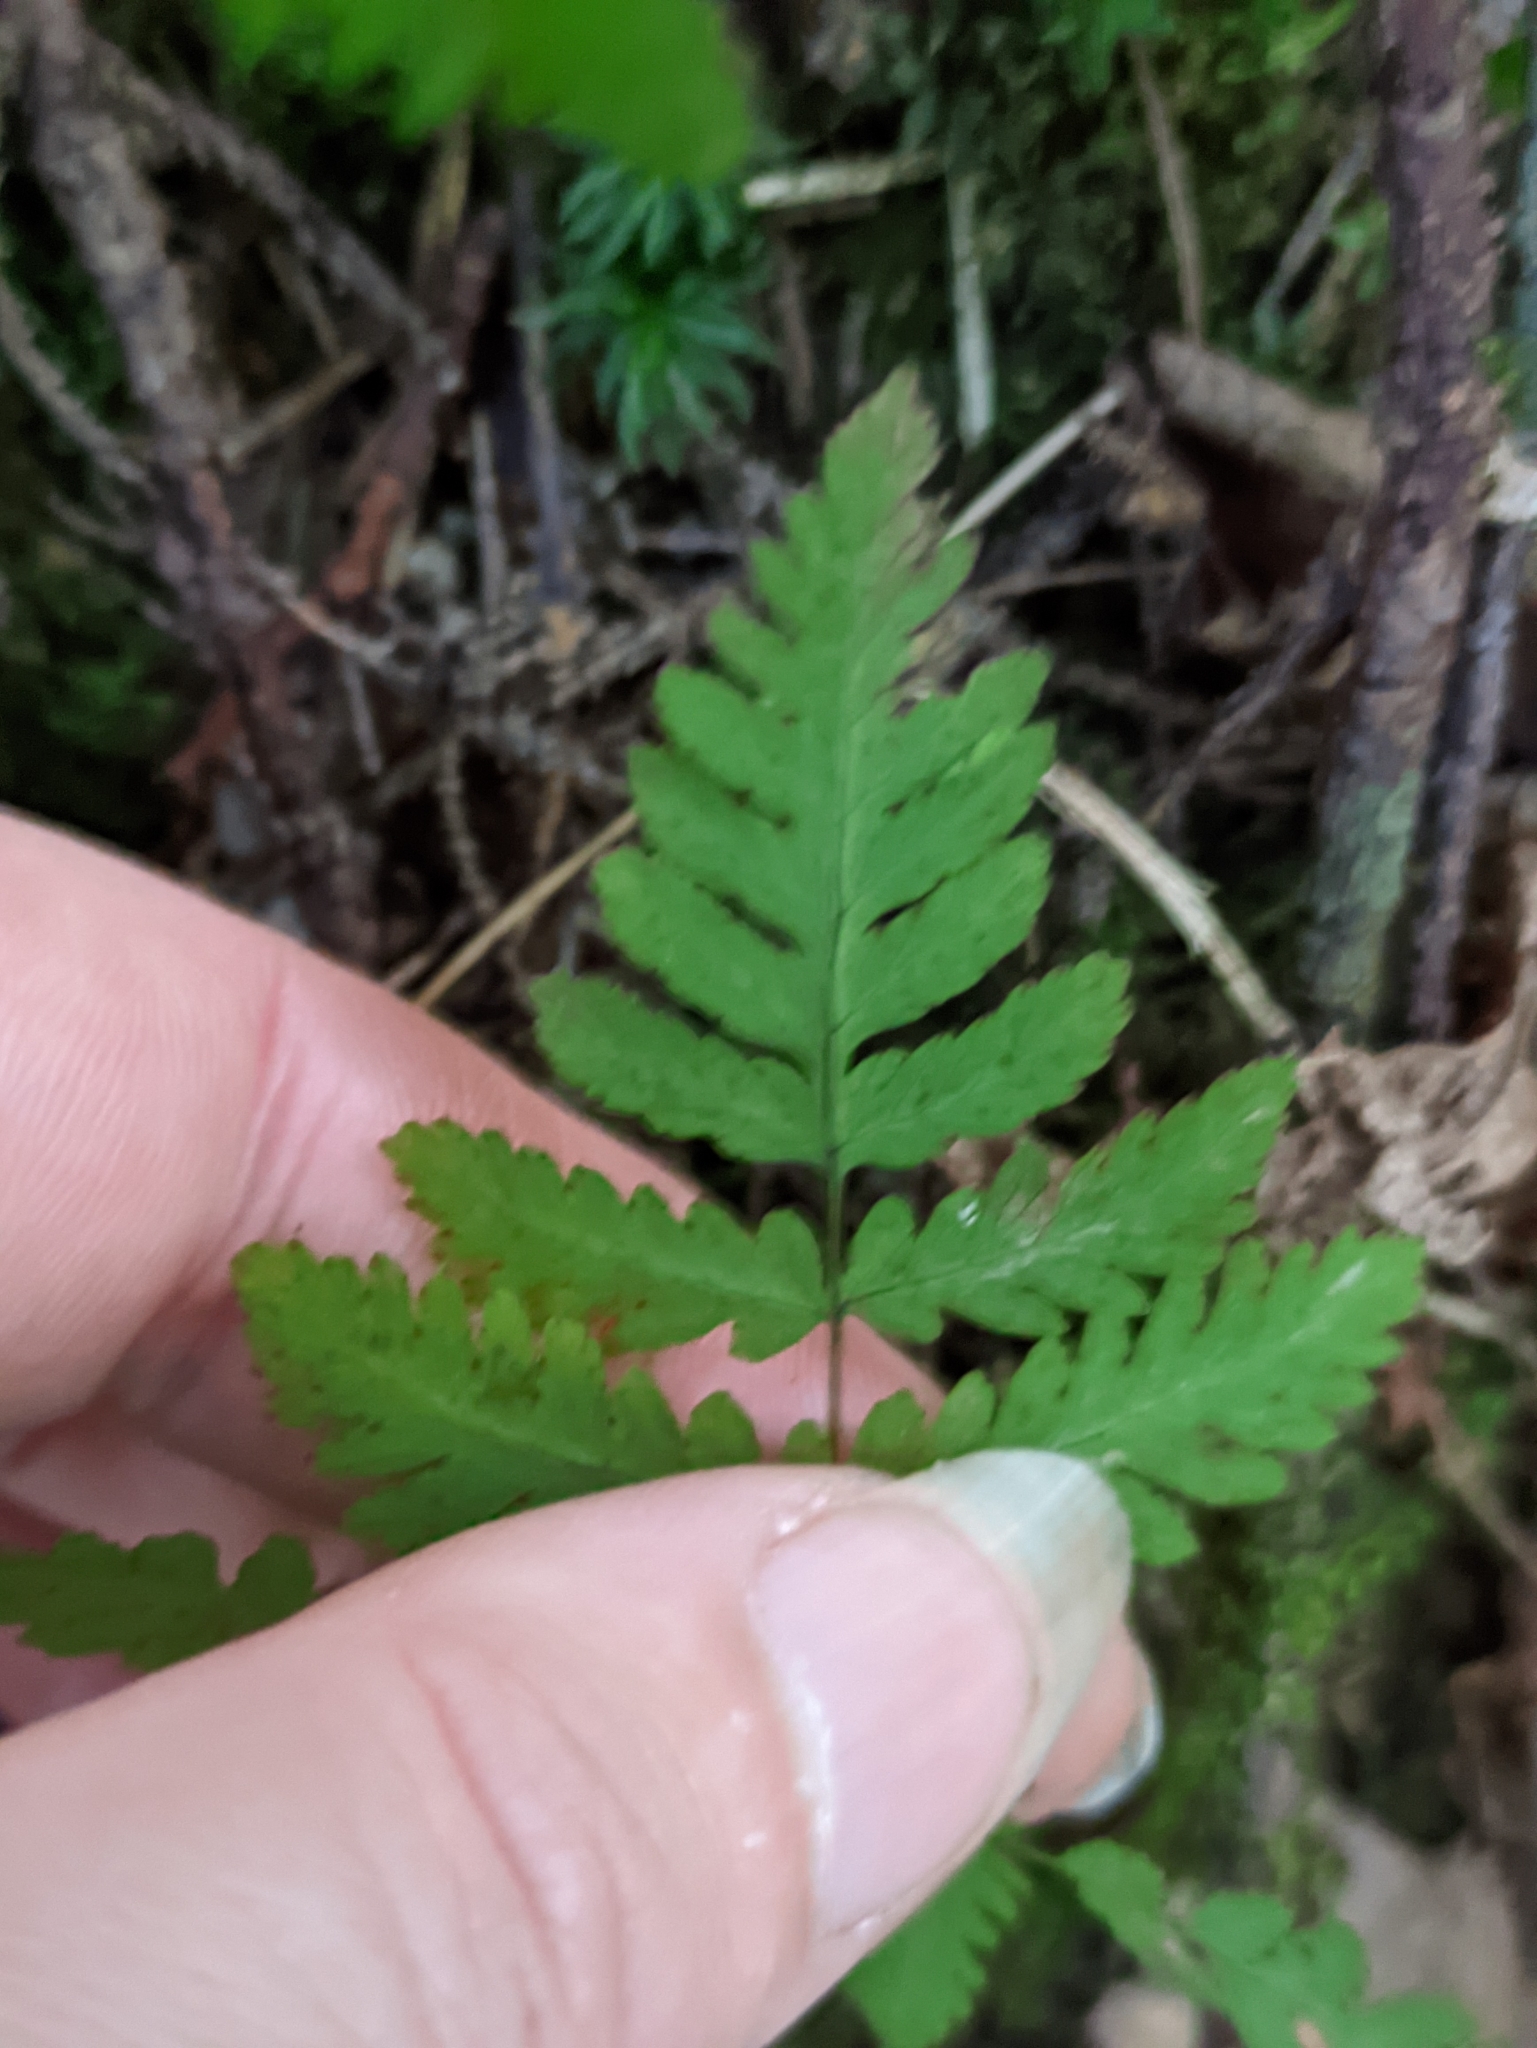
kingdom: Plantae
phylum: Tracheophyta
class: Polypodiopsida
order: Polypodiales
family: Cystopteridaceae
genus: Gymnocarpium
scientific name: Gymnocarpium dryopteris
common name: Oak fern
